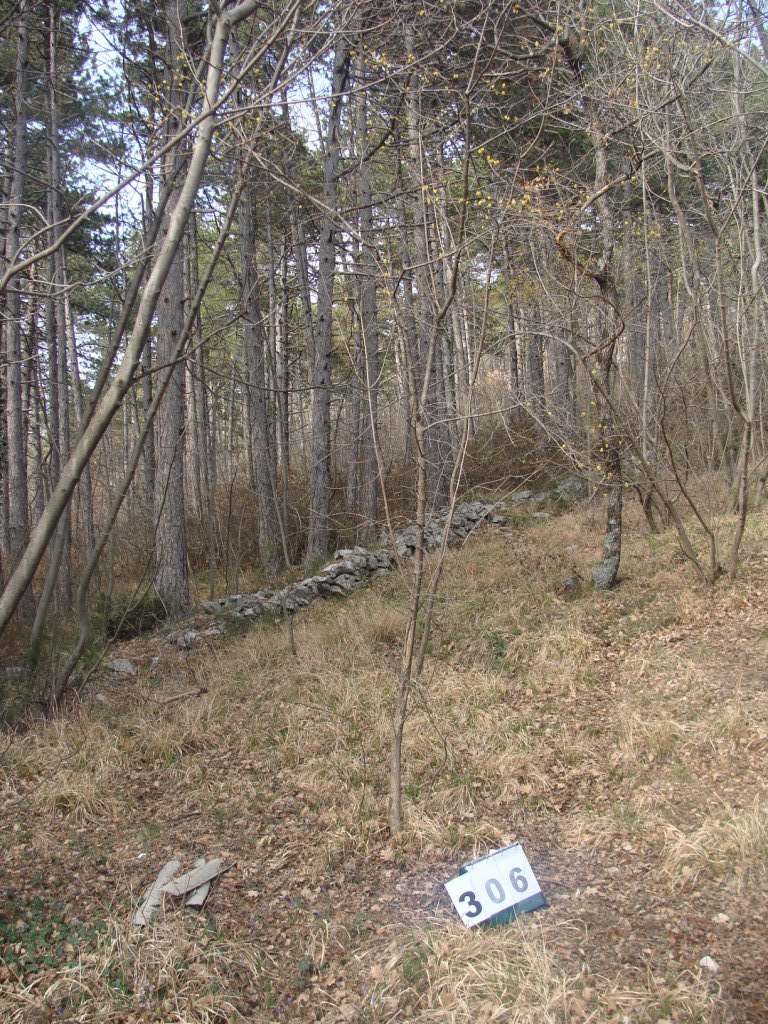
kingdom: Plantae
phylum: Tracheophyta
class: Magnoliopsida
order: Cornales
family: Cornaceae
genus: Cornus
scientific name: Cornus mas
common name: Cornelian-cherry
